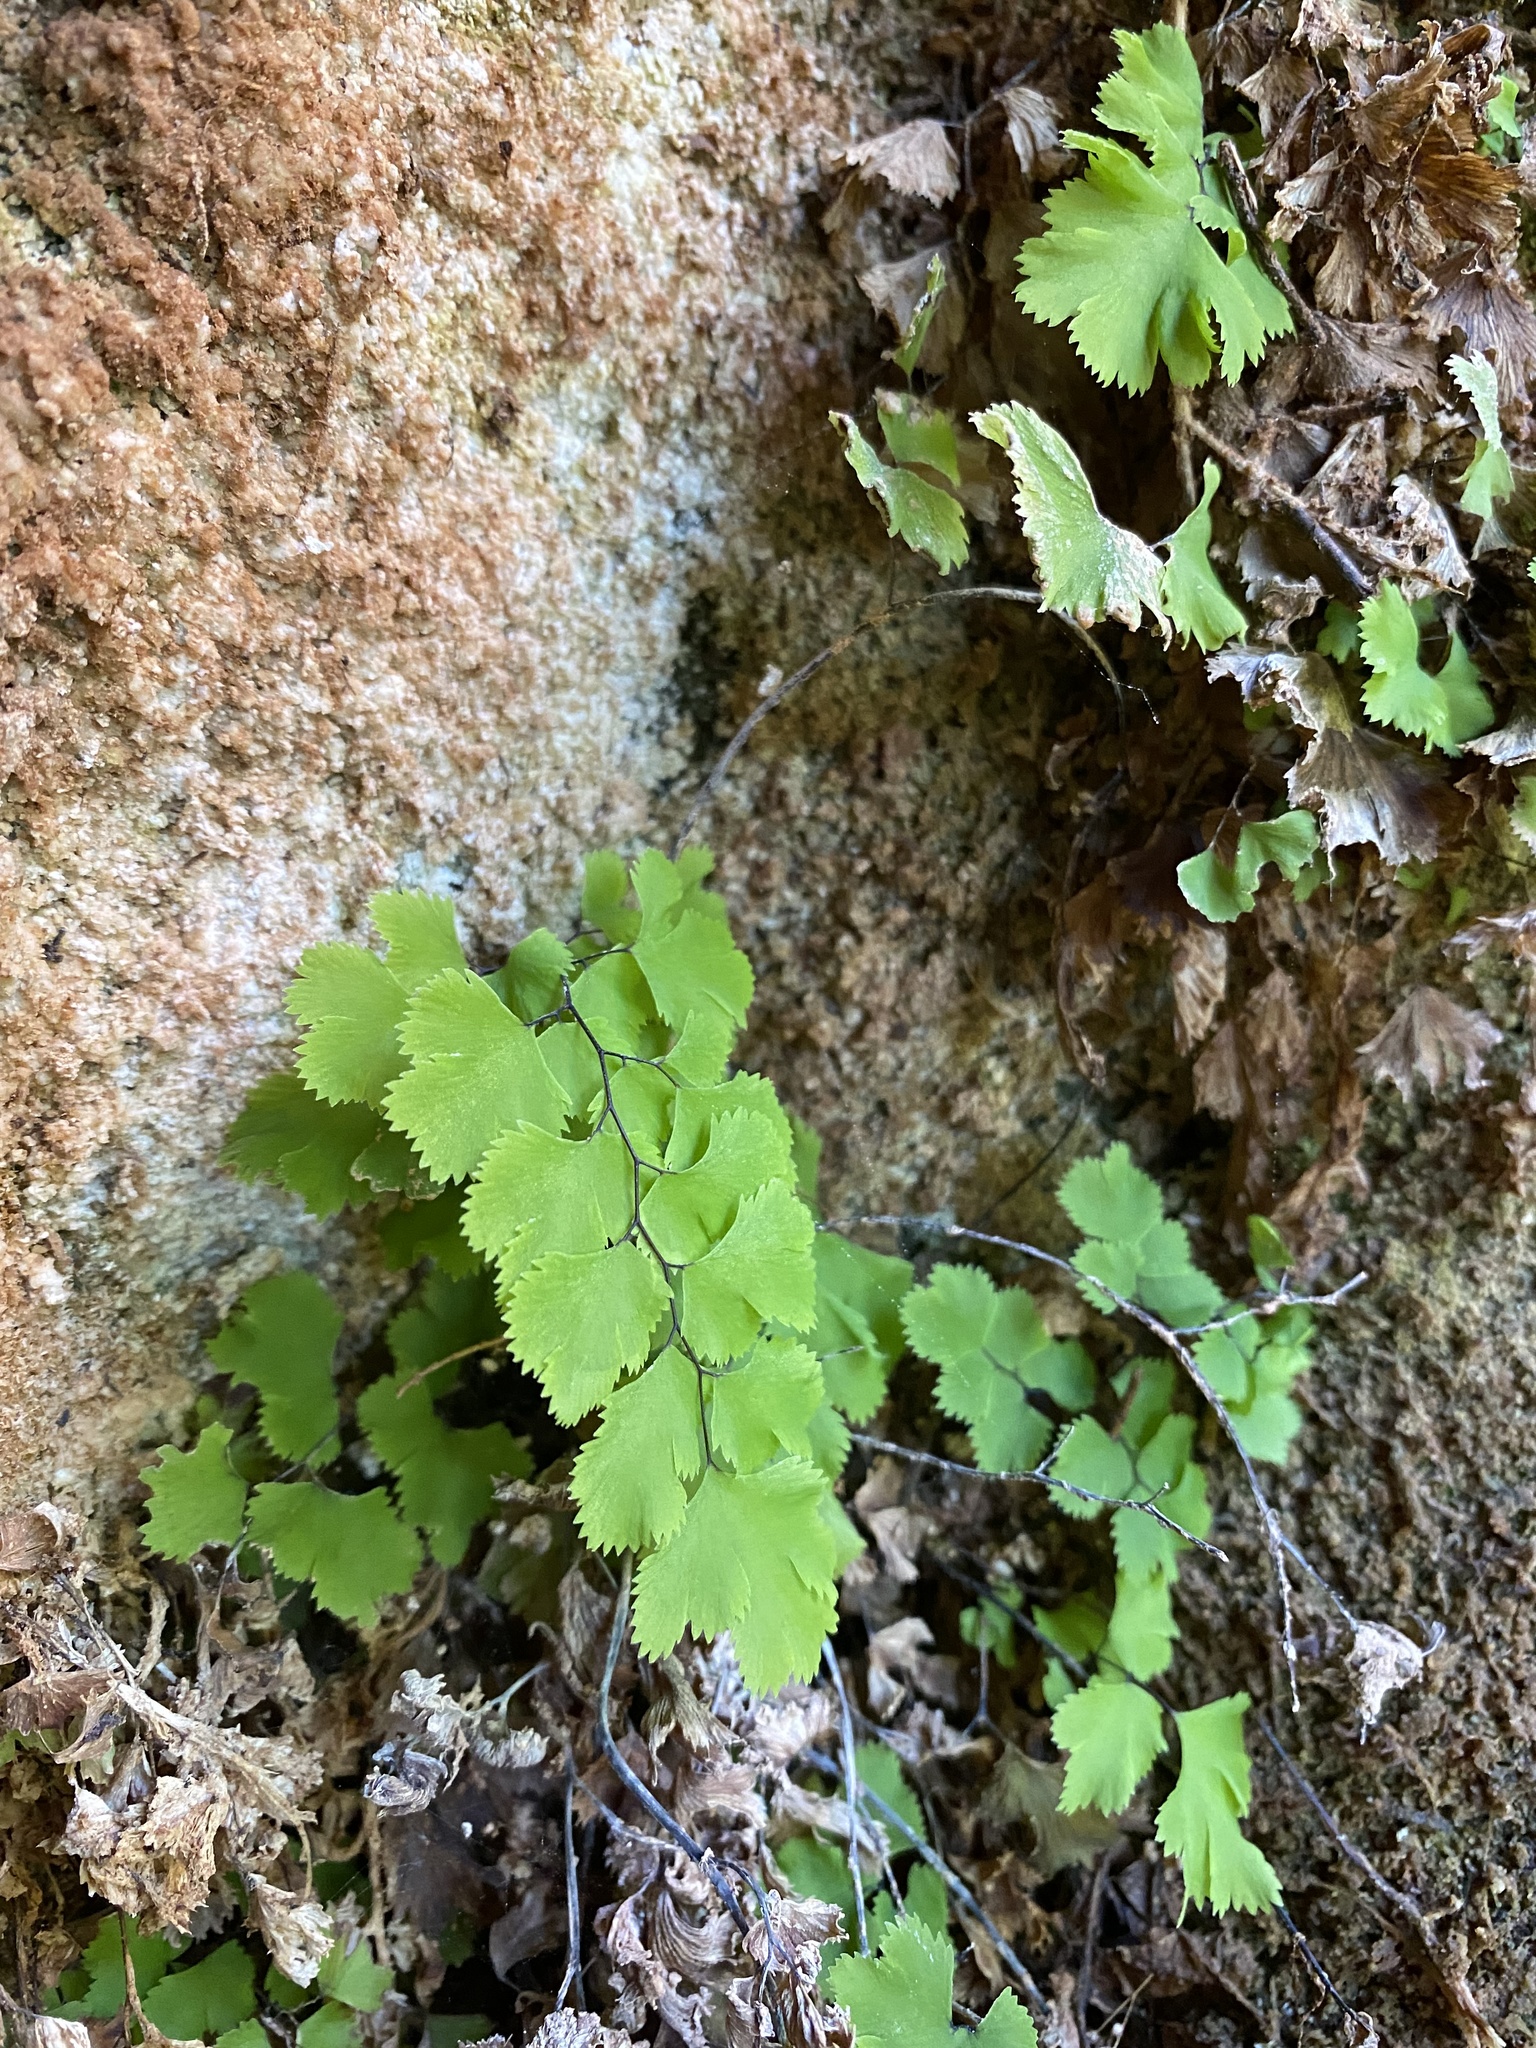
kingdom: Plantae
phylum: Tracheophyta
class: Polypodiopsida
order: Polypodiales
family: Pteridaceae
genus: Adiantum
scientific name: Adiantum capillus-veneris
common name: Maidenhair fern
